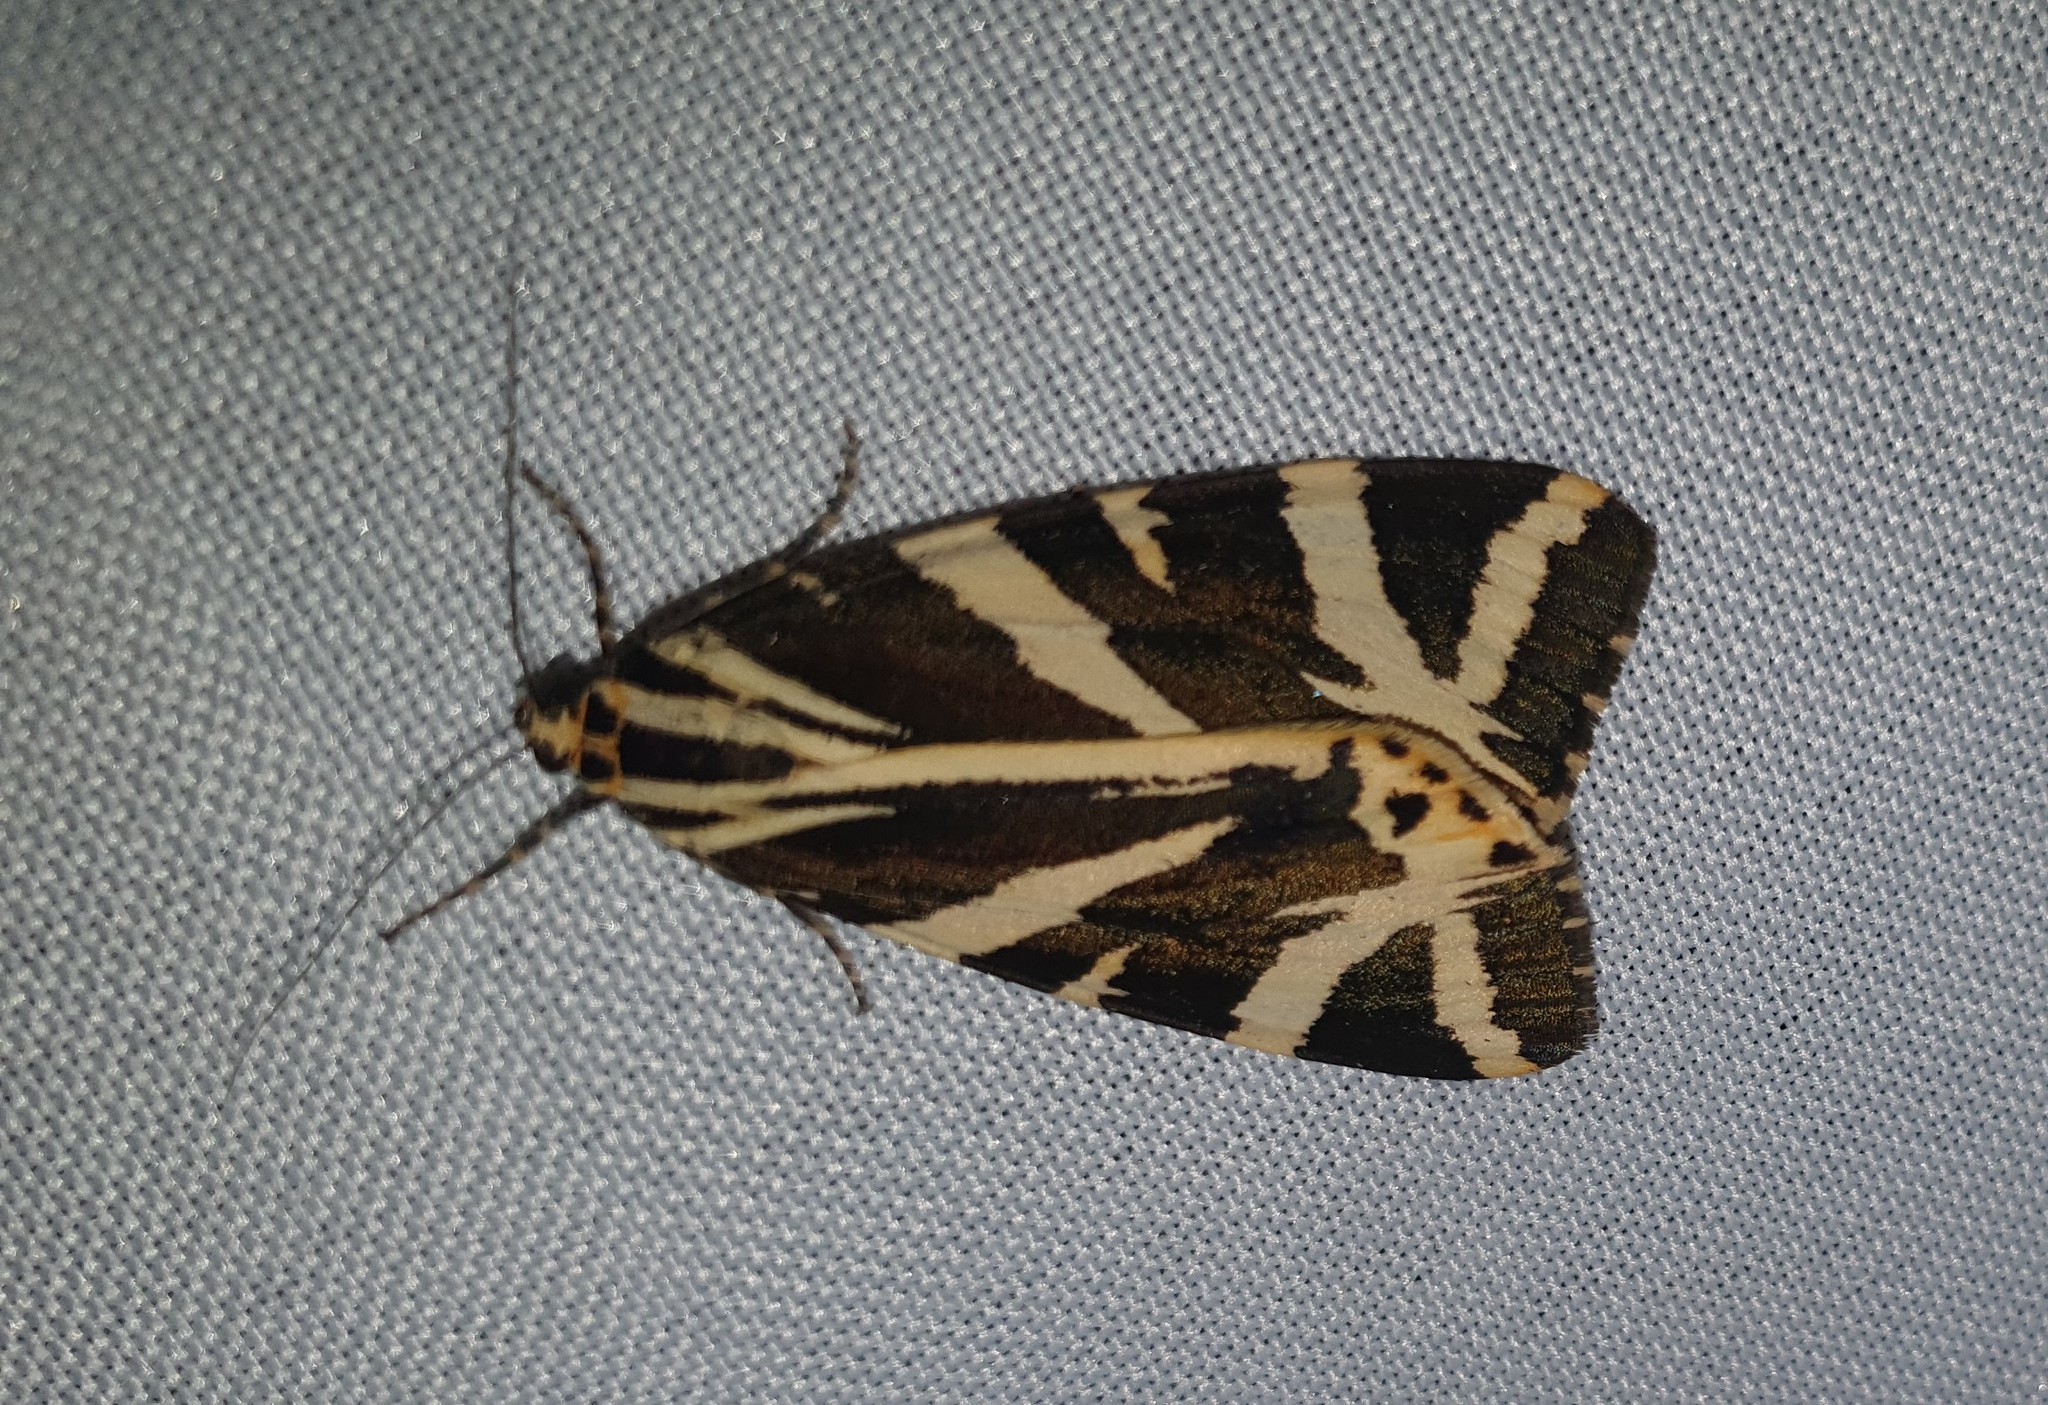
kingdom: Animalia
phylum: Arthropoda
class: Insecta
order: Lepidoptera
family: Erebidae
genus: Euplagia
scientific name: Euplagia quadripunctaria
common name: Jersey tiger
